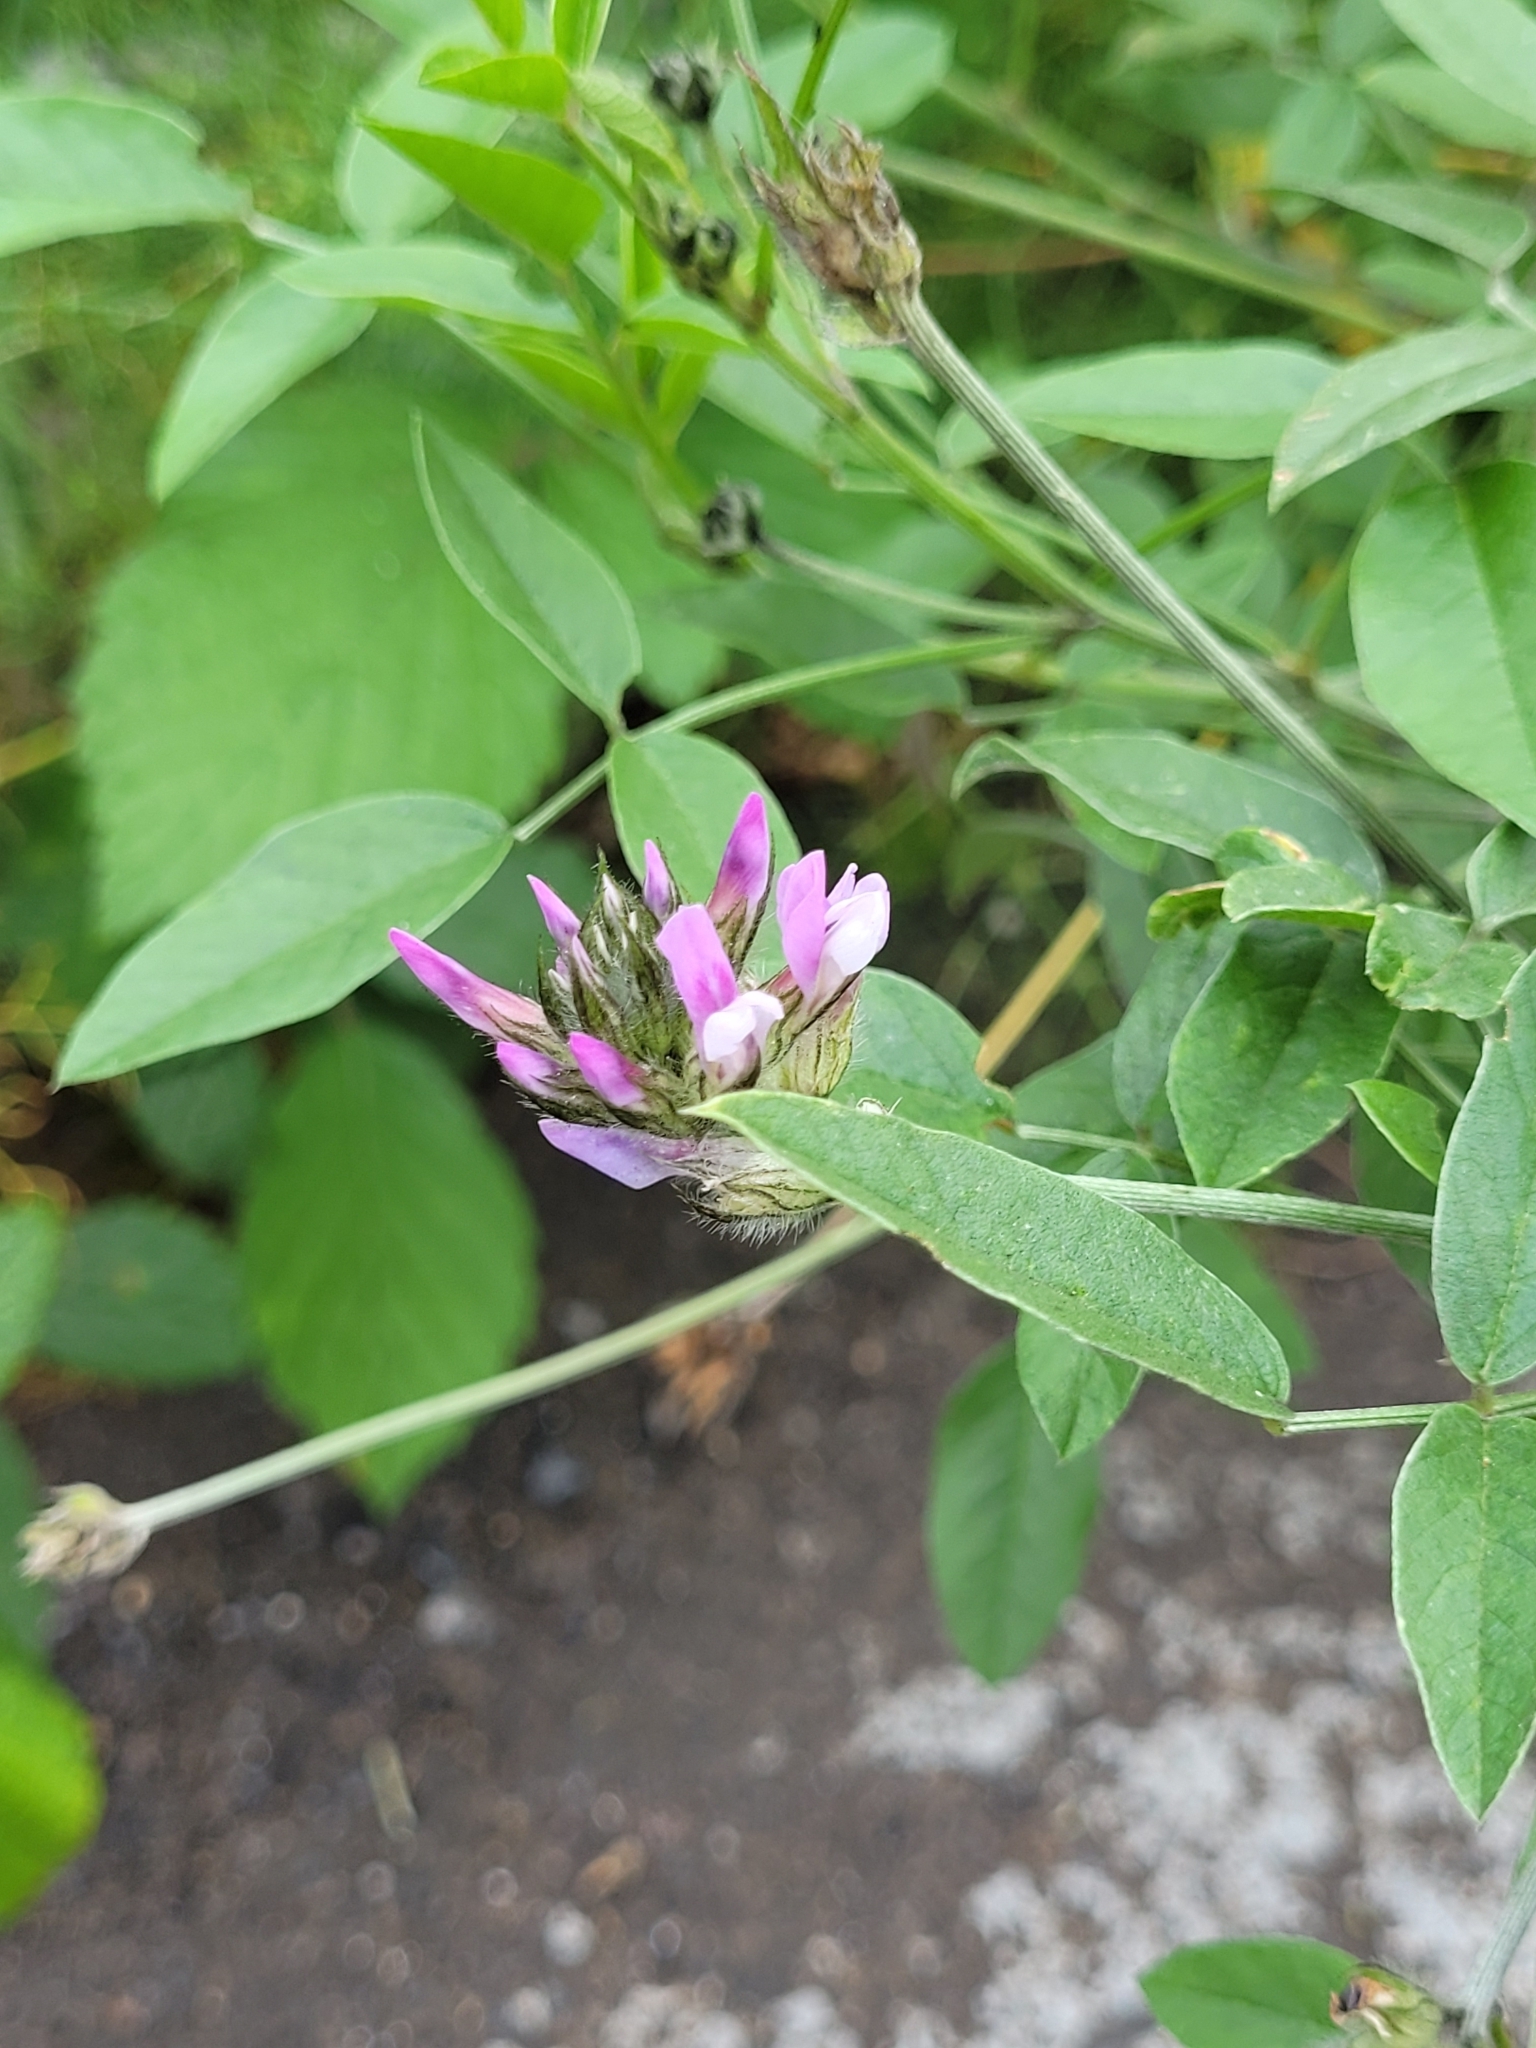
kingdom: Plantae
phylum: Tracheophyta
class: Magnoliopsida
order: Fabales
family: Fabaceae
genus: Bituminaria
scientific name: Bituminaria bituminosa
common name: Arabian pea
